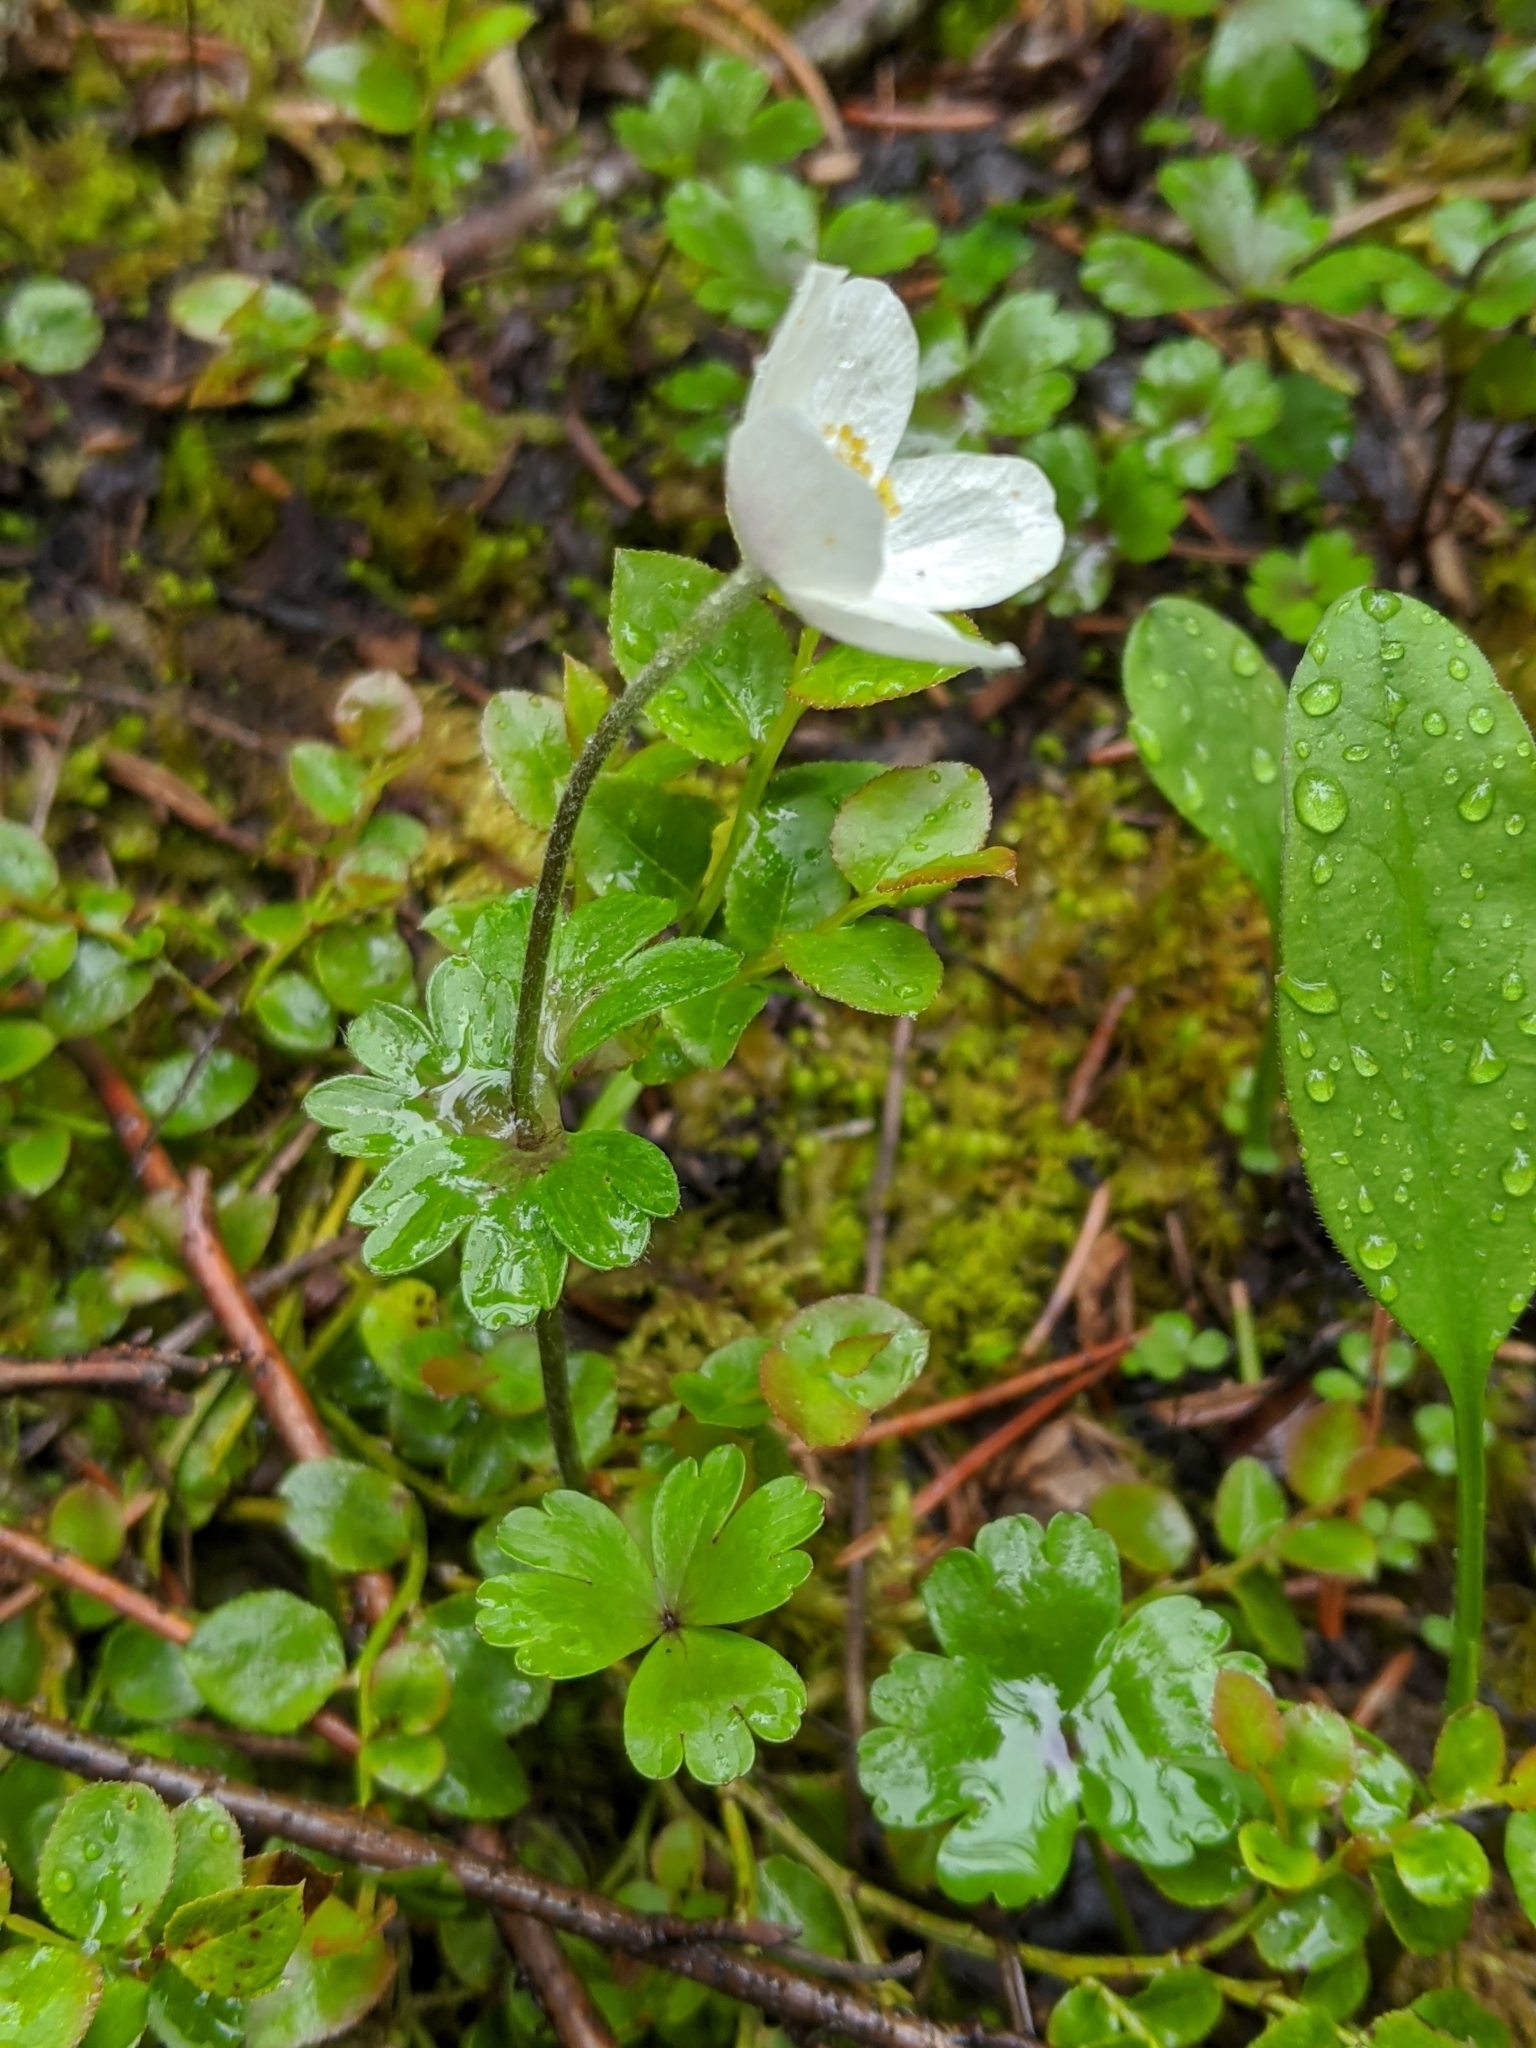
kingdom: Plantae
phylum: Tracheophyta
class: Magnoliopsida
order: Ranunculales
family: Ranunculaceae
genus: Anemone
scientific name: Anemone parviflora
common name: Northern anemone
